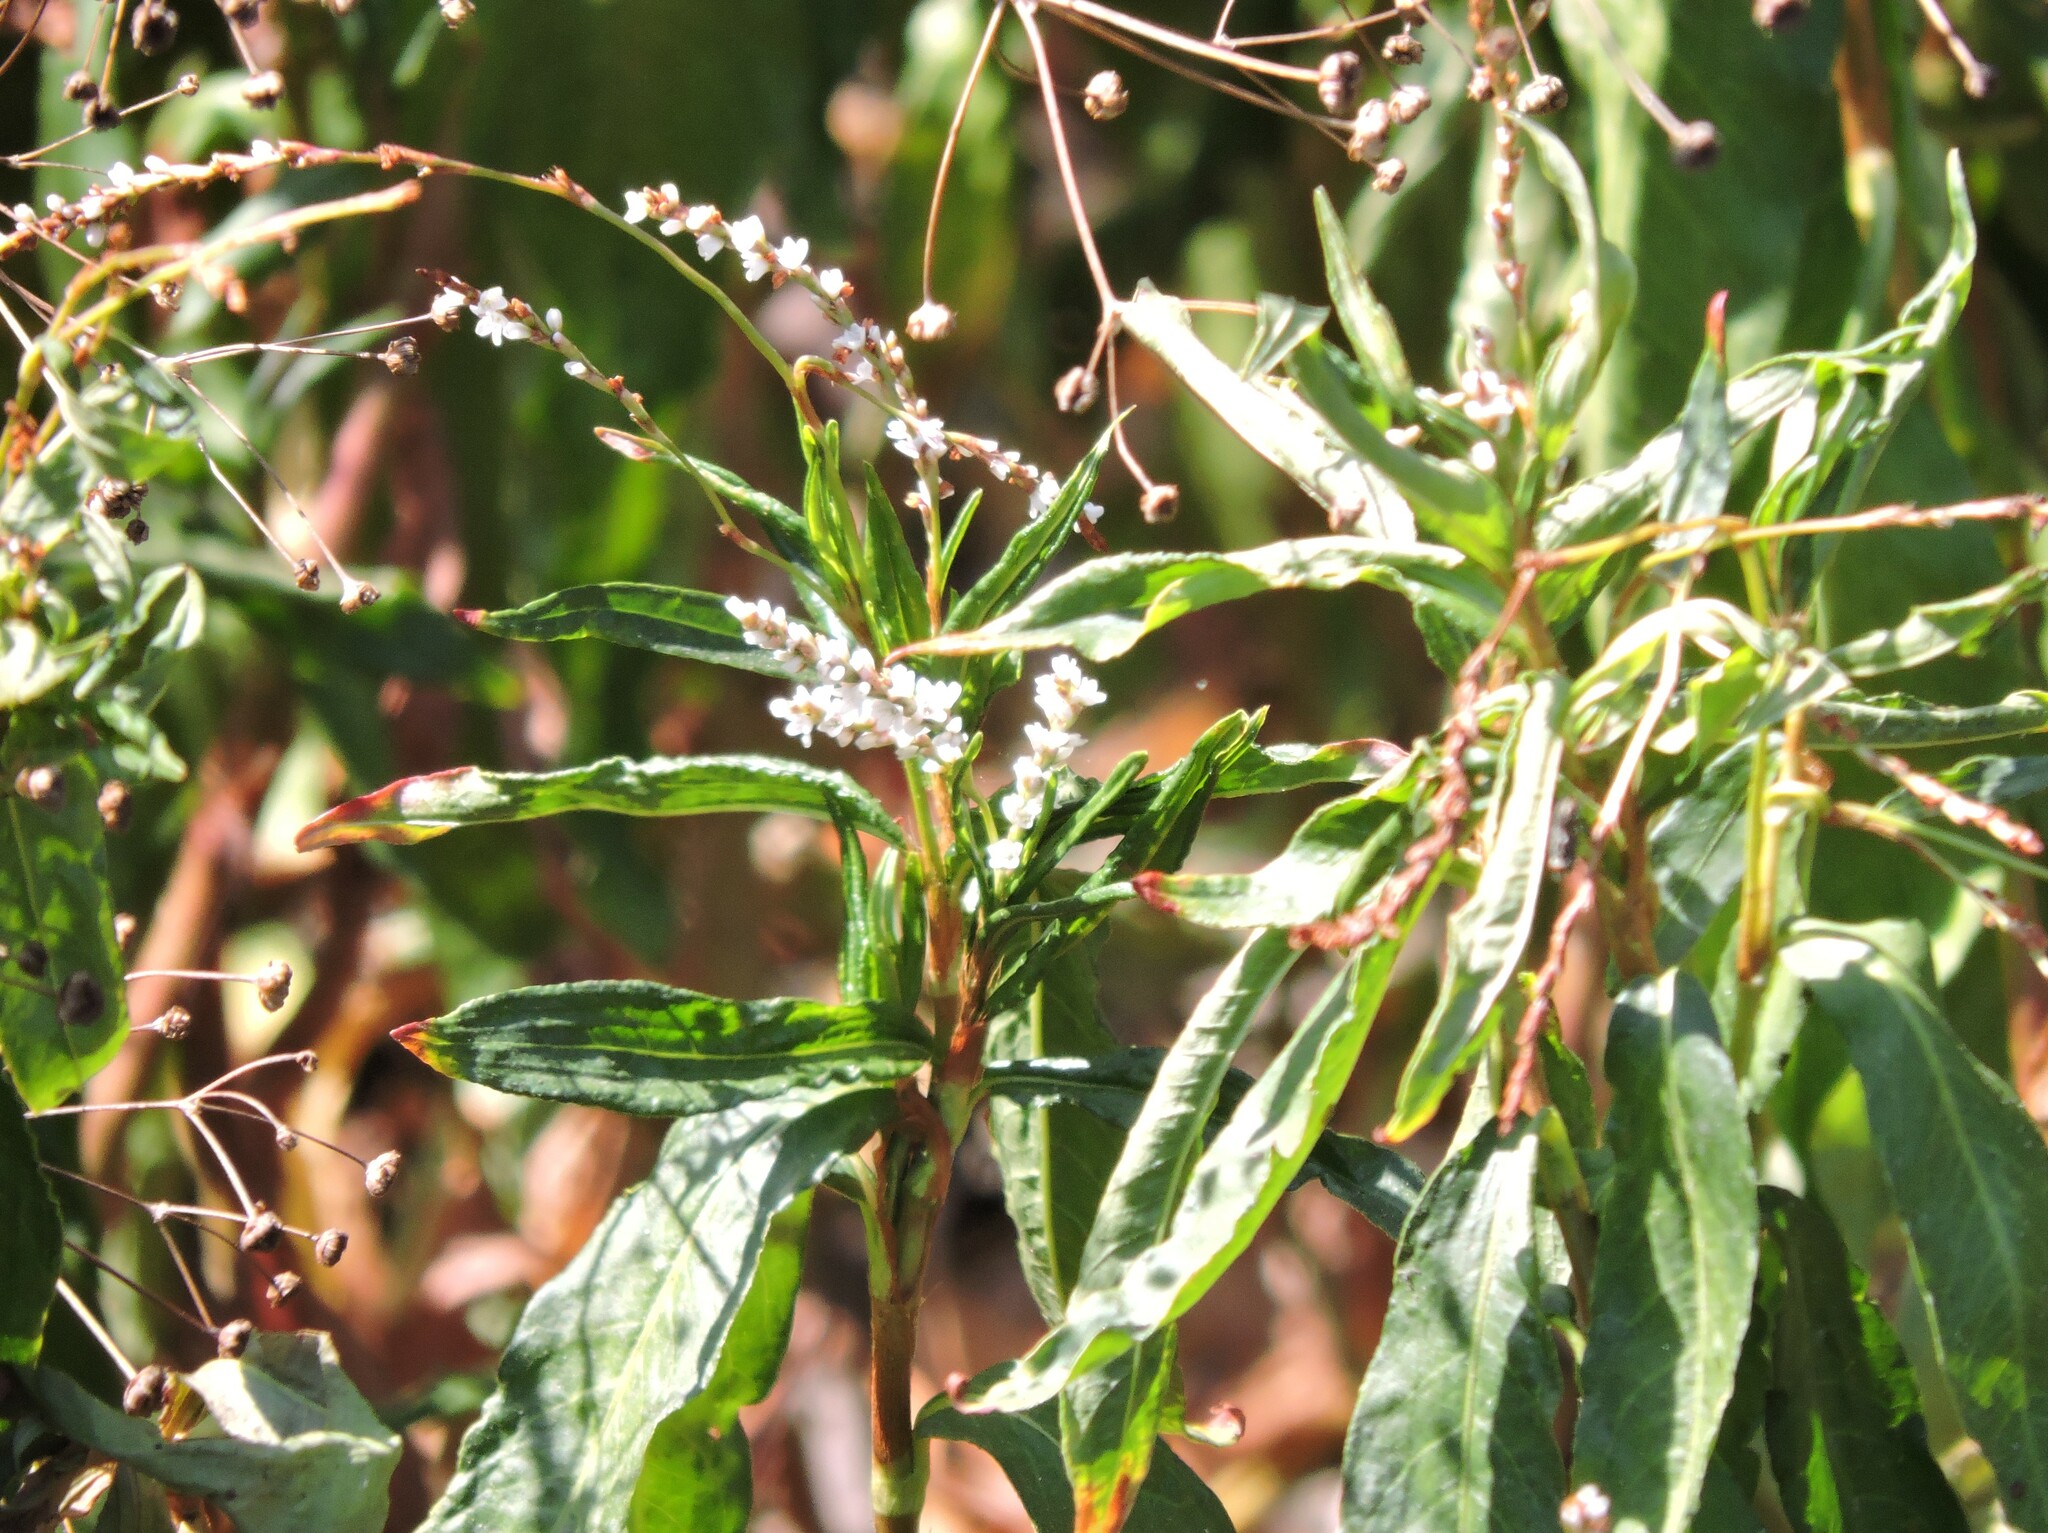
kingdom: Plantae
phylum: Tracheophyta
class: Magnoliopsida
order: Caryophyllales
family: Polygonaceae
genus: Persicaria
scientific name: Persicaria hydropiperoides
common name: Swamp smartweed
